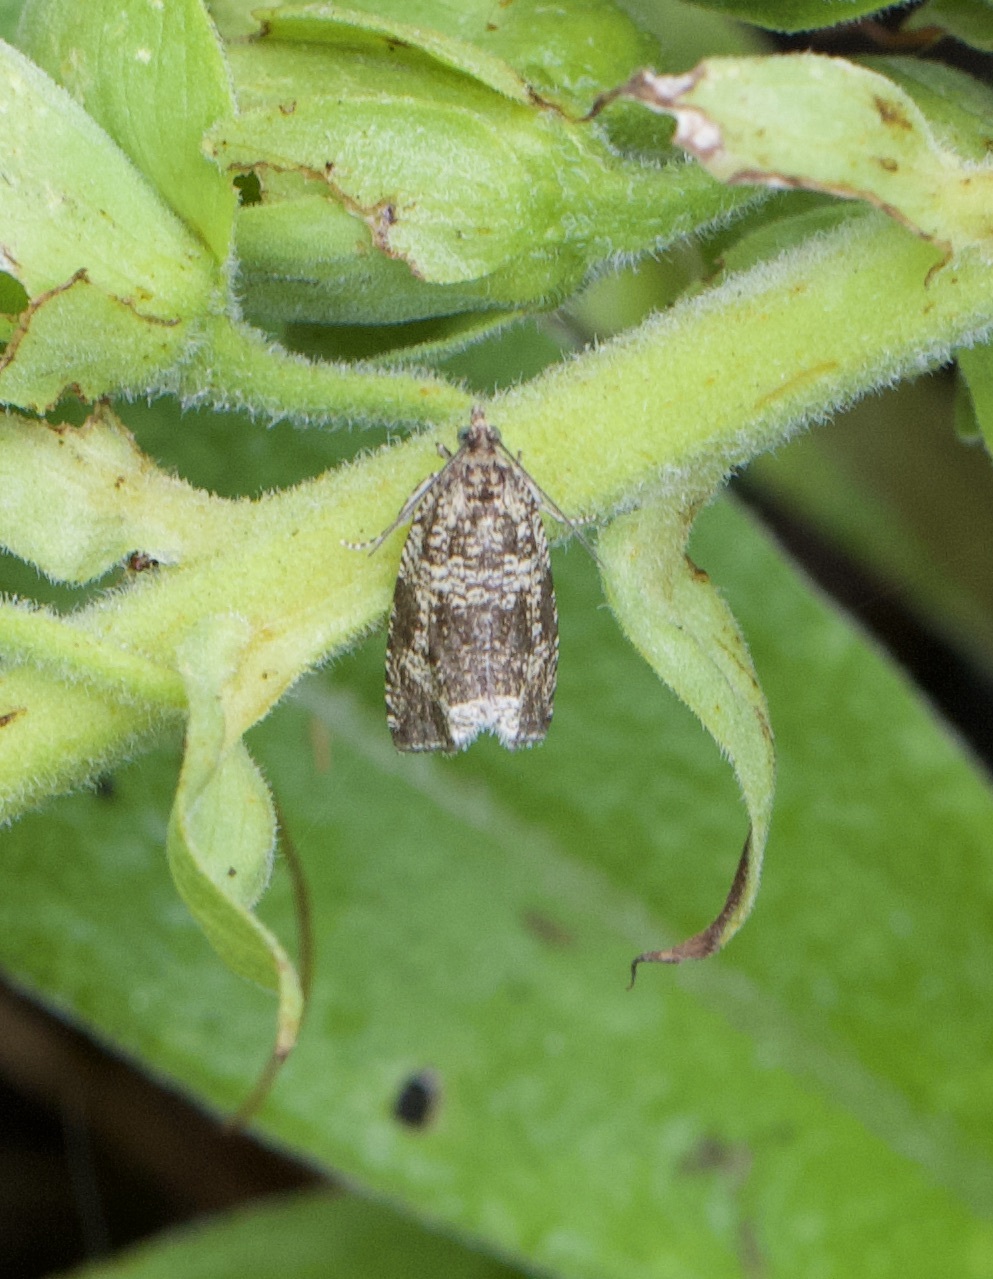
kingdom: Animalia
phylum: Arthropoda
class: Insecta
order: Lepidoptera
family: Tortricidae
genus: Syricoris
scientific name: Syricoris lacunana
